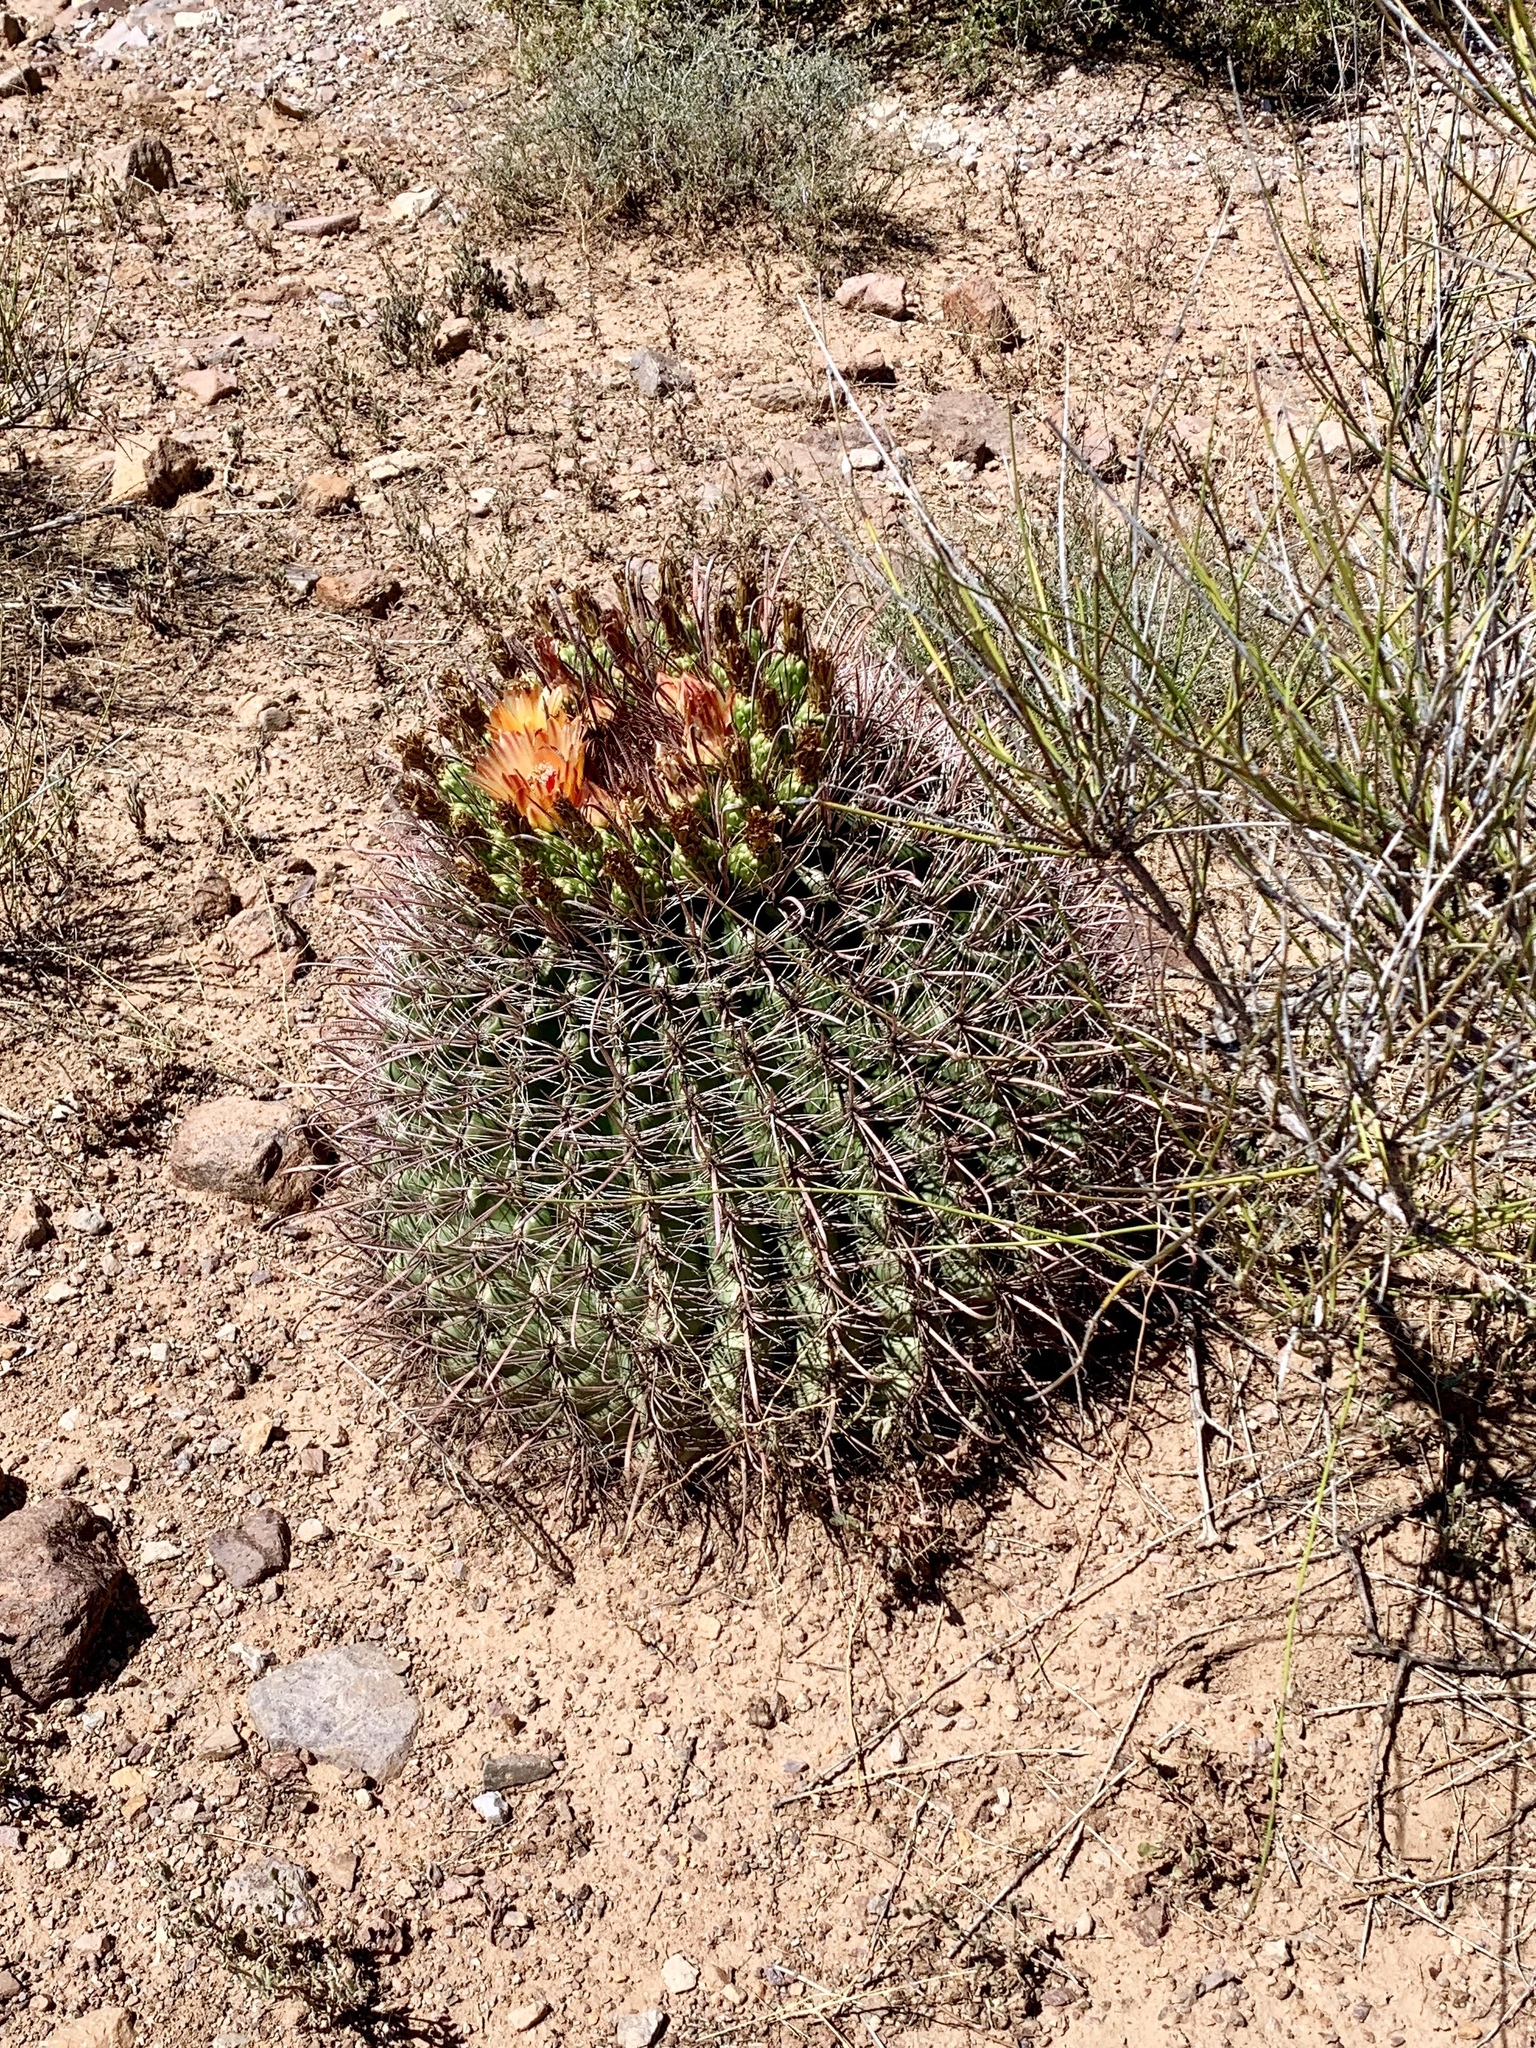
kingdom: Plantae
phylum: Tracheophyta
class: Magnoliopsida
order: Caryophyllales
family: Cactaceae
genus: Ferocactus
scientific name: Ferocactus wislizeni
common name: Candy barrel cactus
